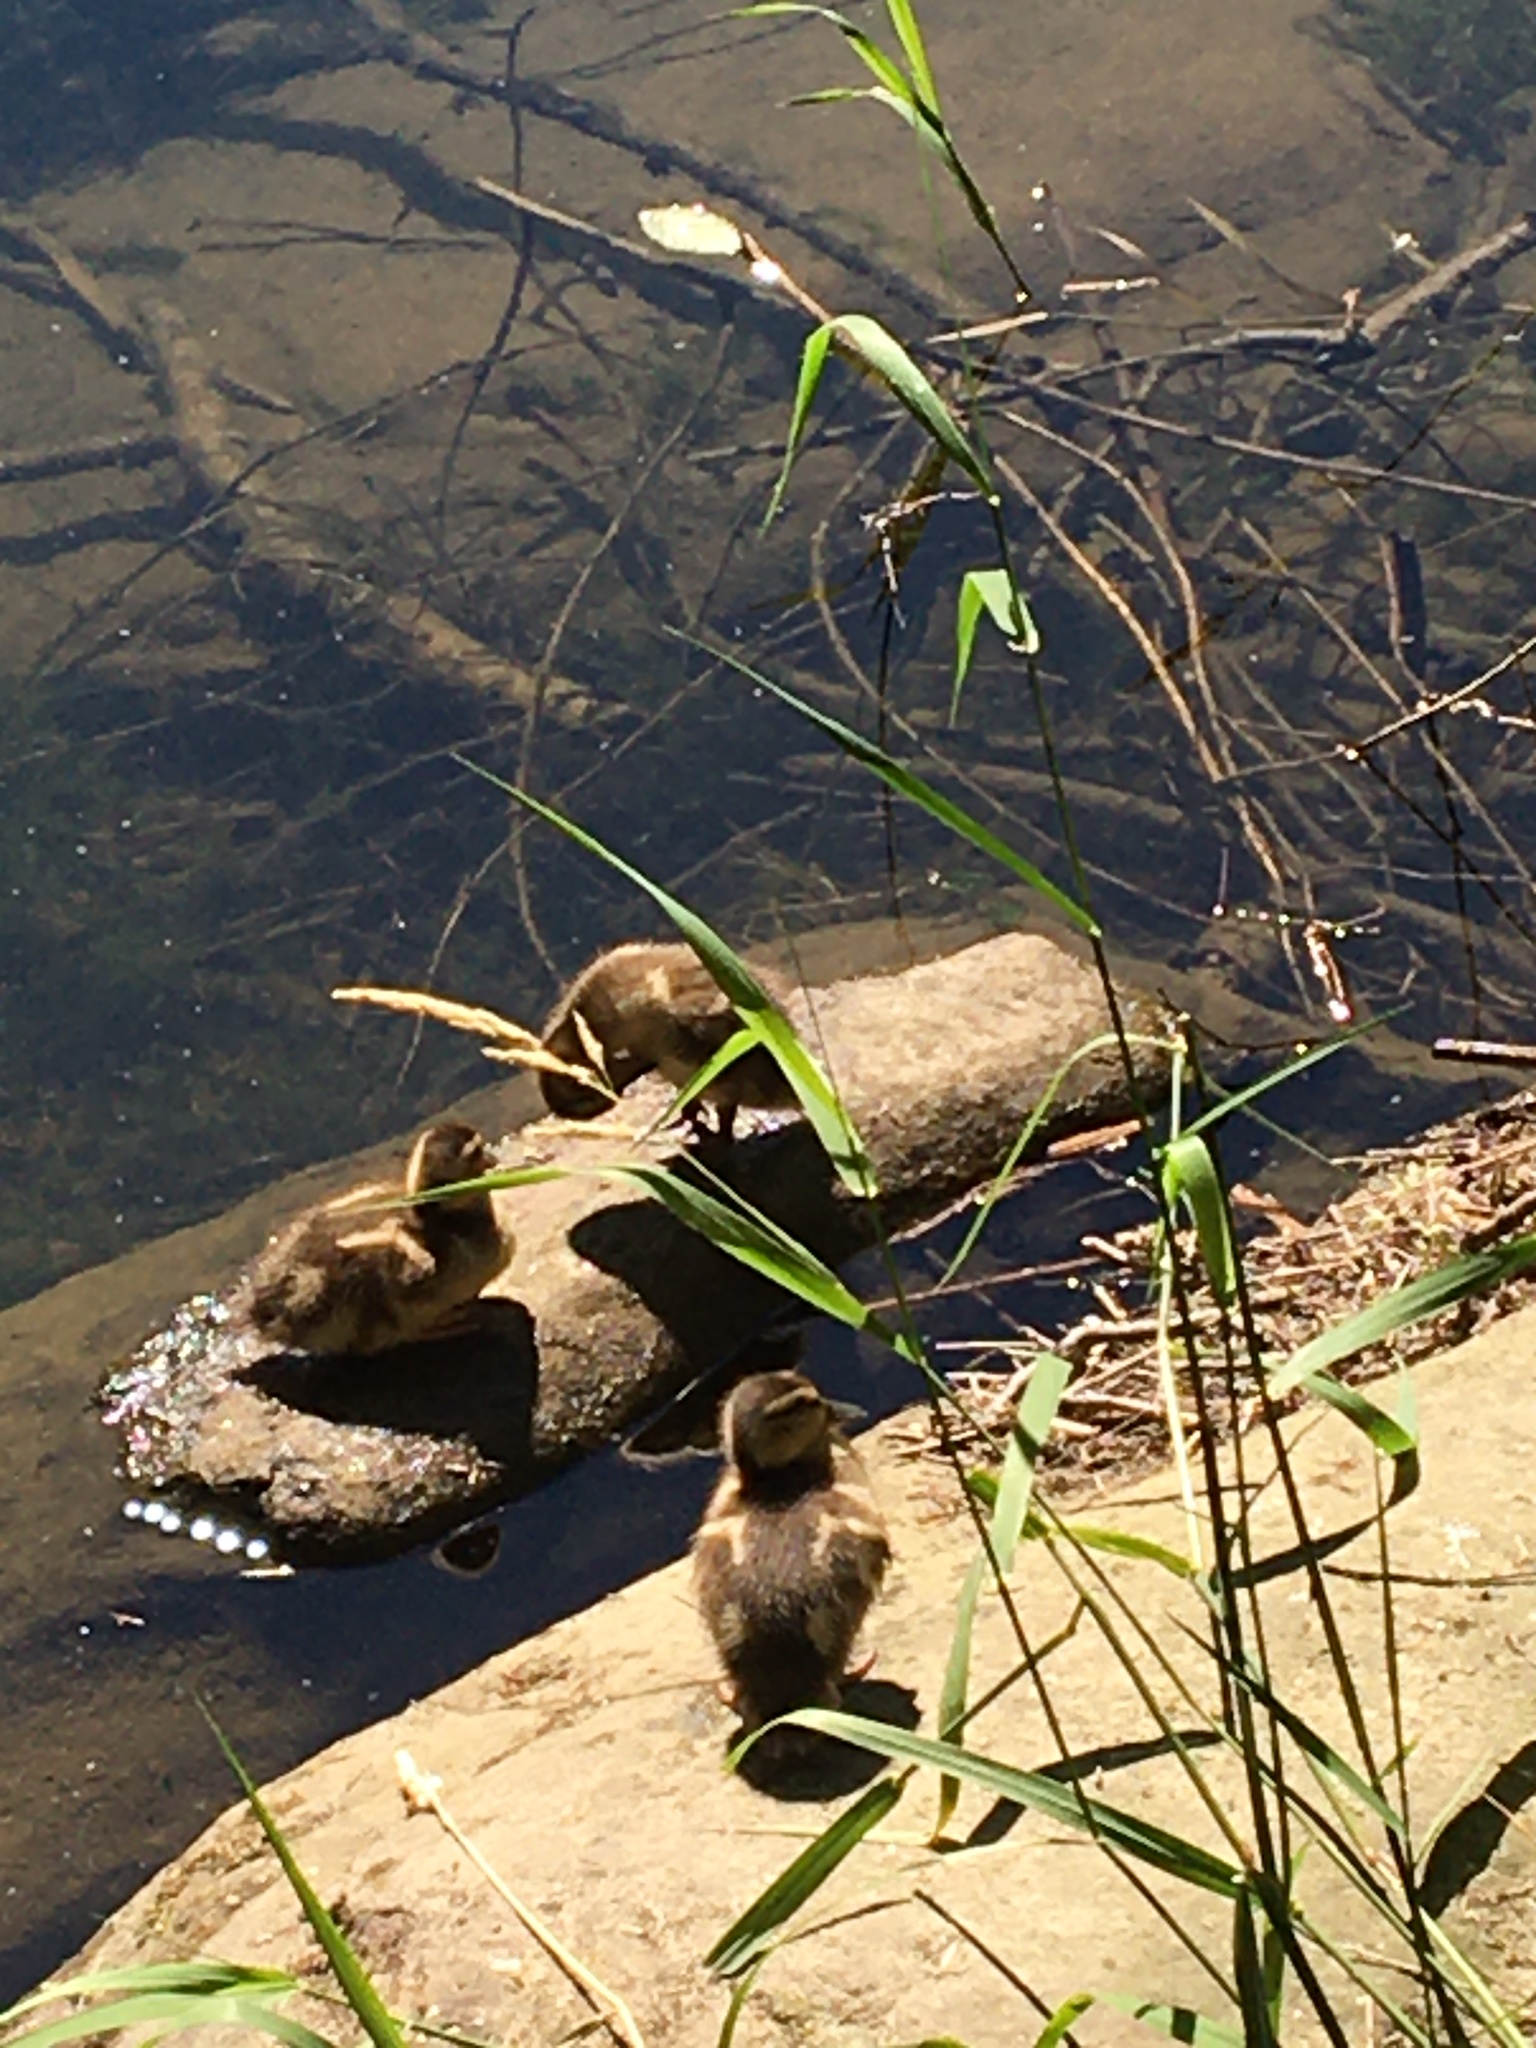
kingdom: Animalia
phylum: Chordata
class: Aves
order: Anseriformes
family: Anatidae
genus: Anas
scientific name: Anas platyrhynchos
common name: Mallard
